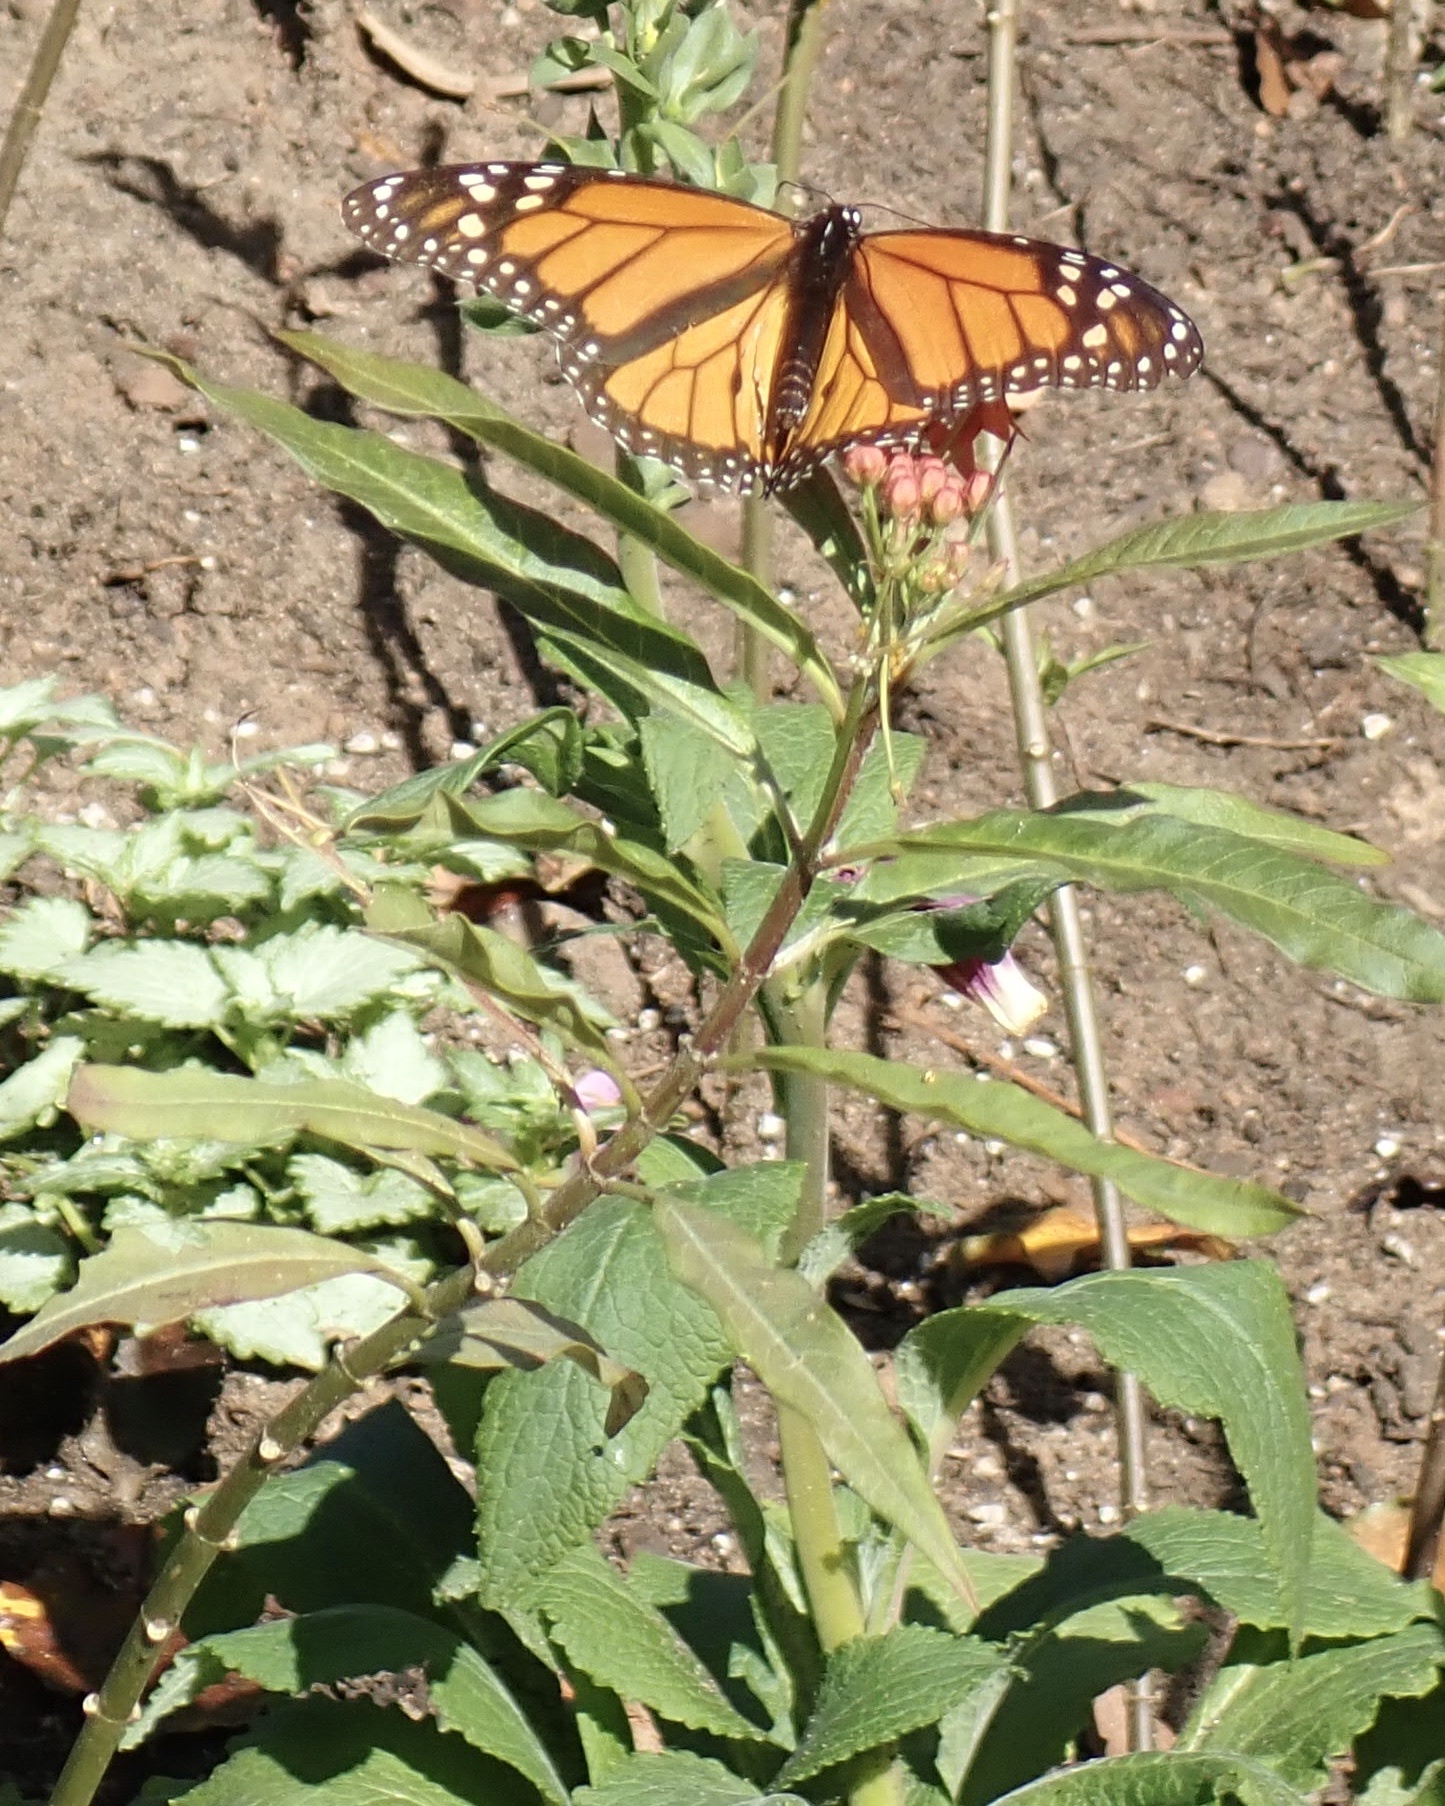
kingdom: Plantae
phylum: Tracheophyta
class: Magnoliopsida
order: Gentianales
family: Apocynaceae
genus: Asclepias
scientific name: Asclepias curassavica
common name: Bloodflower
